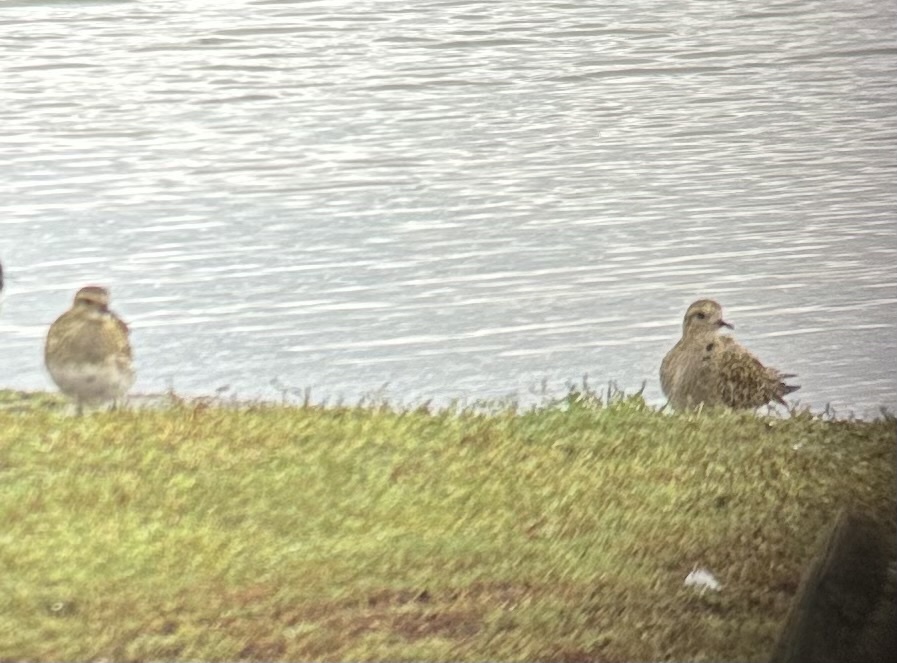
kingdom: Animalia
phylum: Chordata
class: Aves
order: Charadriiformes
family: Charadriidae
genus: Pluvialis
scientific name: Pluvialis apricaria
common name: European golden plover
